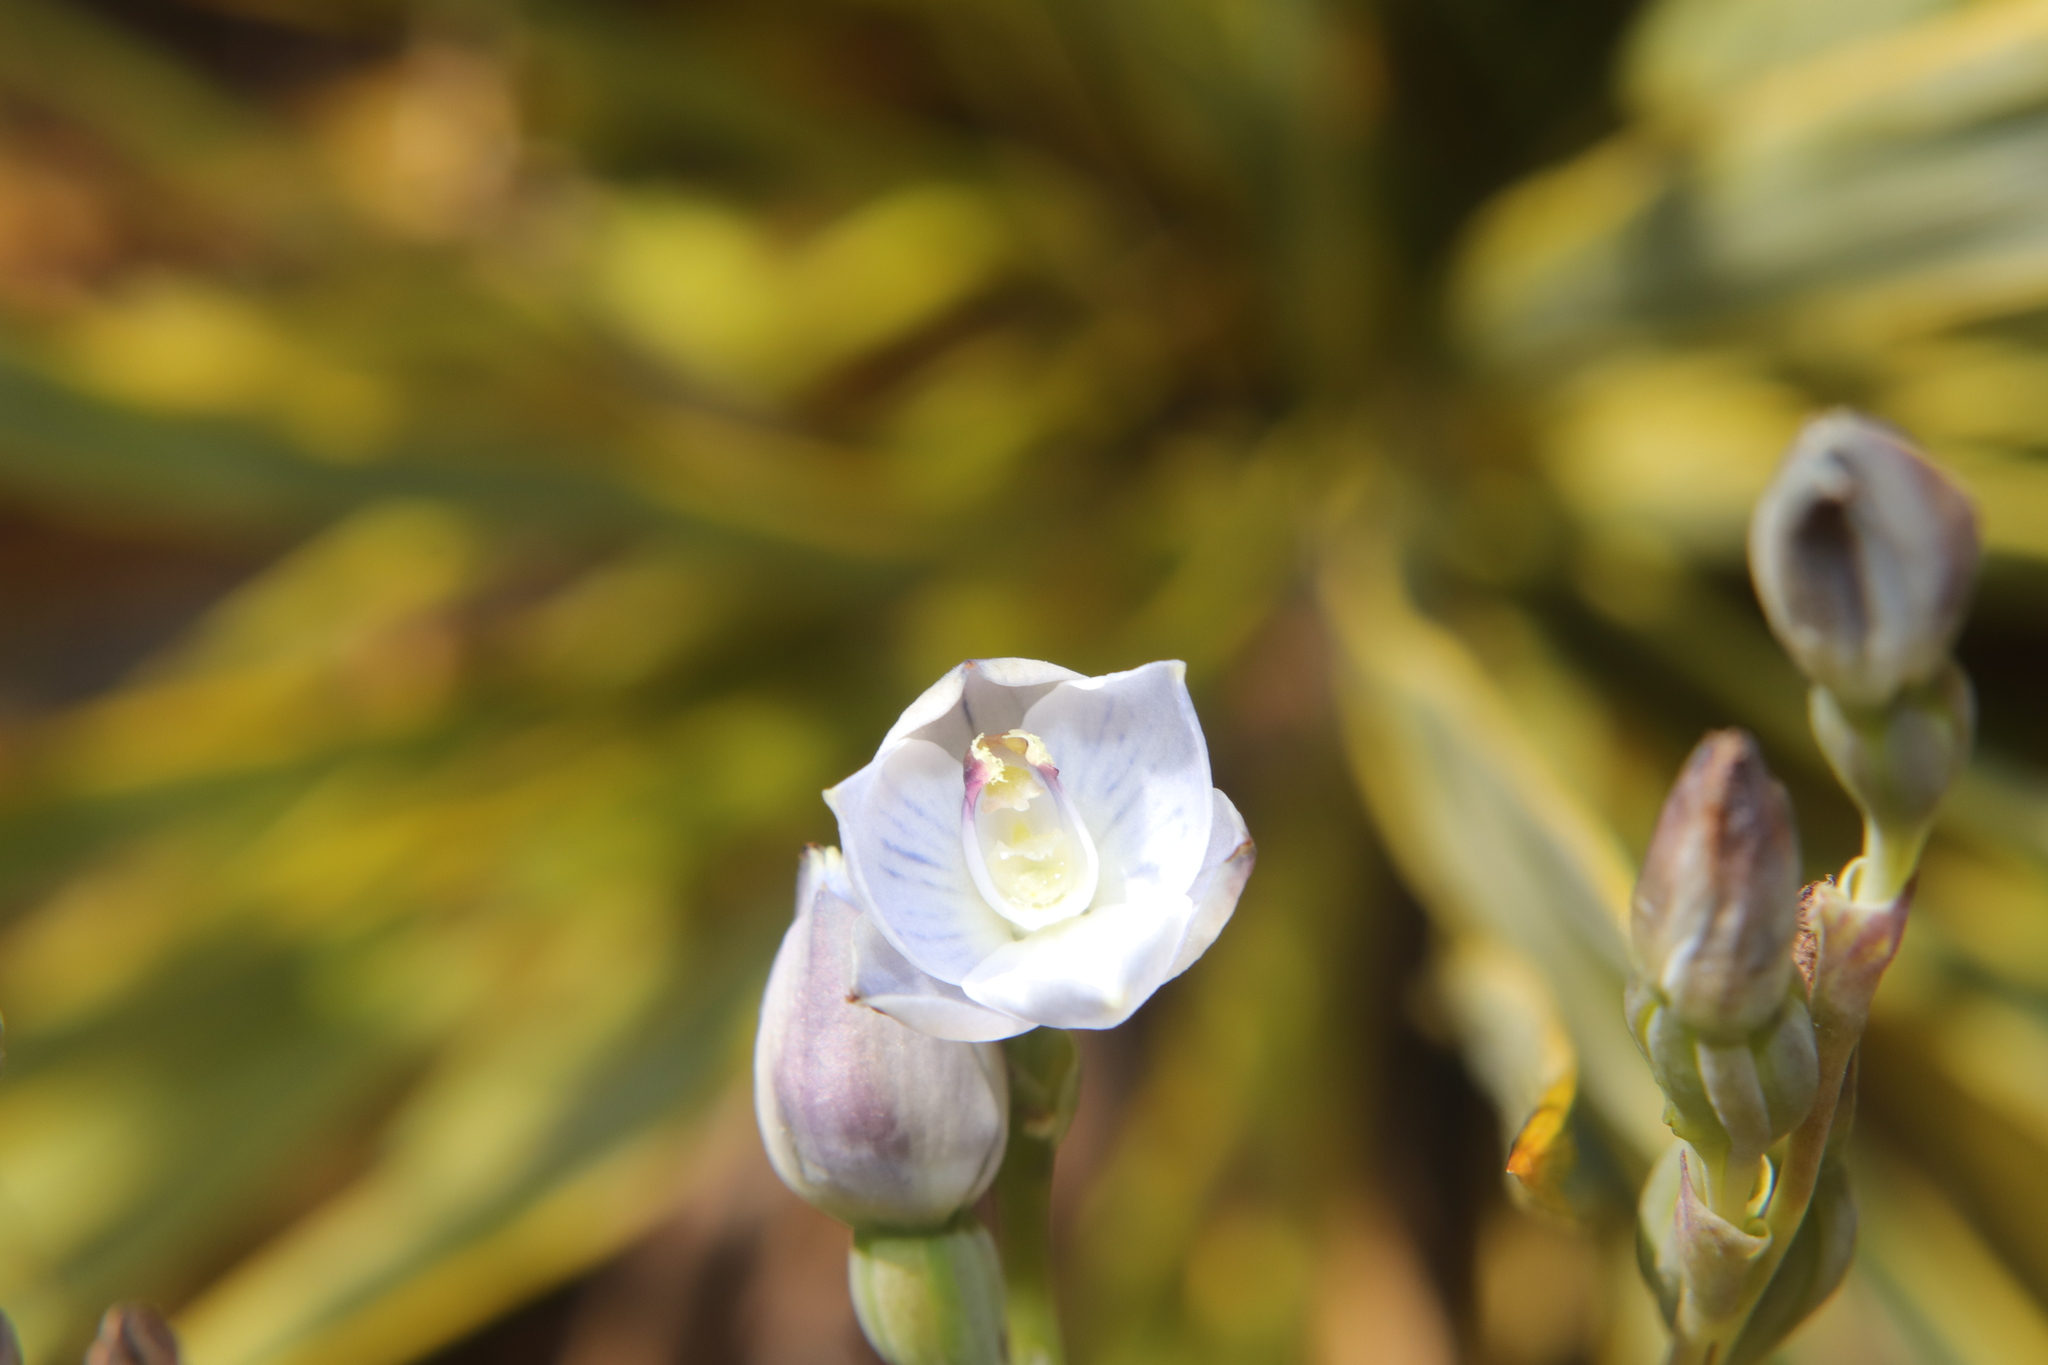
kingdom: Plantae
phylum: Tracheophyta
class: Liliopsida
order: Asparagales
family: Orchidaceae
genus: Thelymitra
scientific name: Thelymitra pulchella
